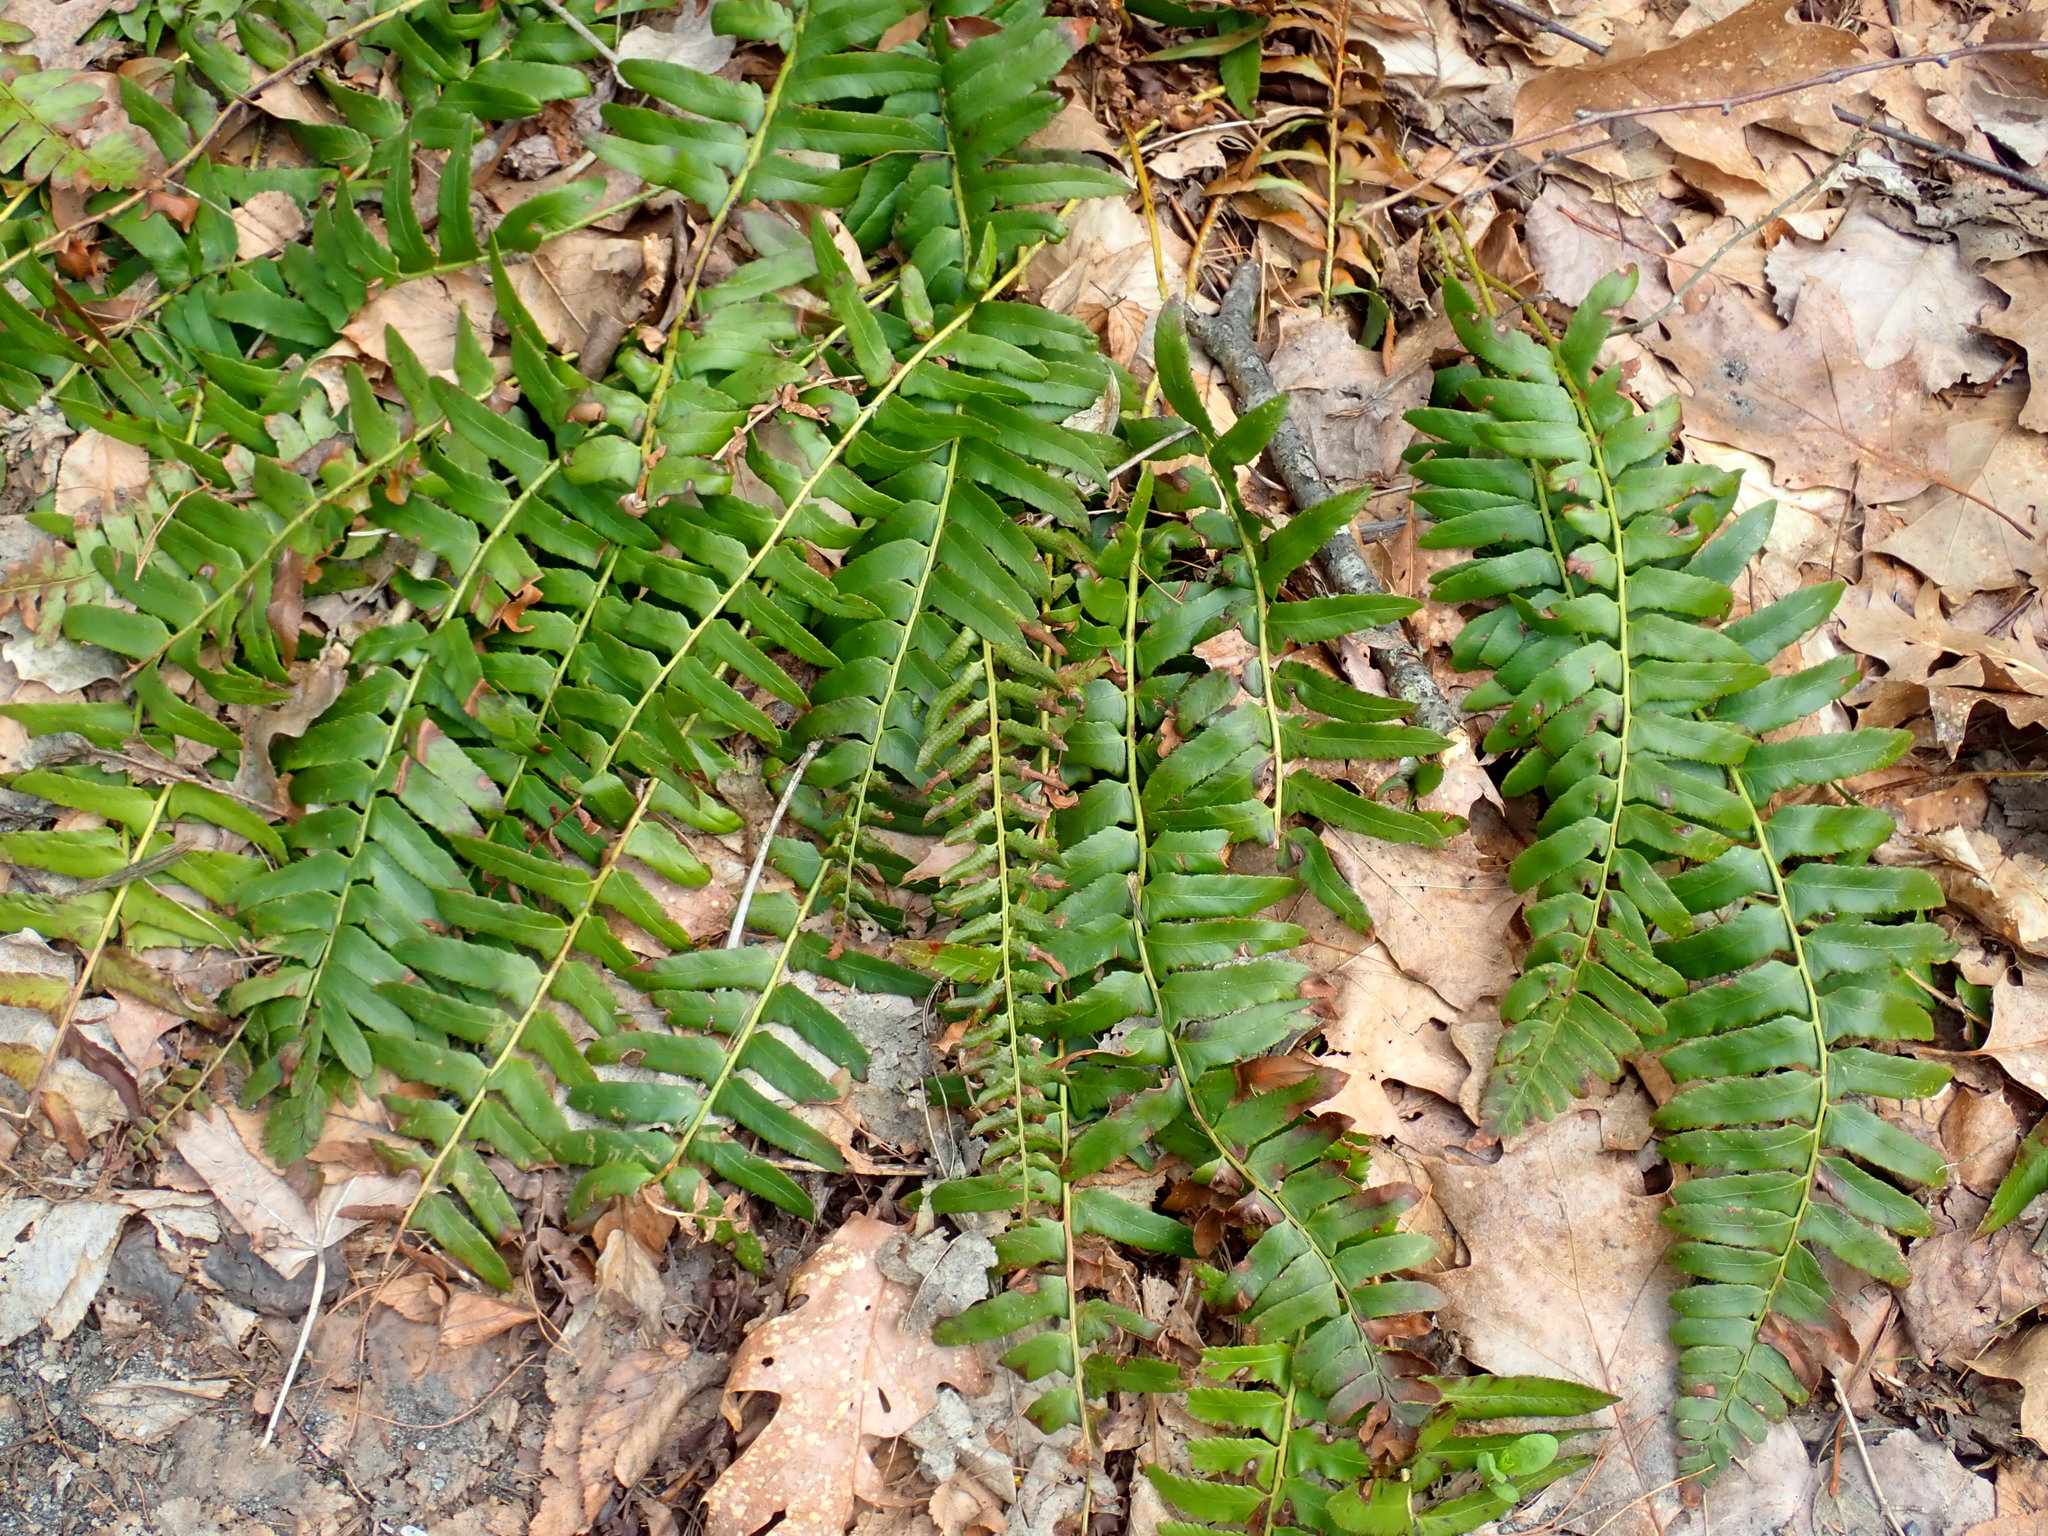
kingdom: Plantae
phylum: Tracheophyta
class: Polypodiopsida
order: Polypodiales
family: Dryopteridaceae
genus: Polystichum
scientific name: Polystichum acrostichoides
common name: Christmas fern
